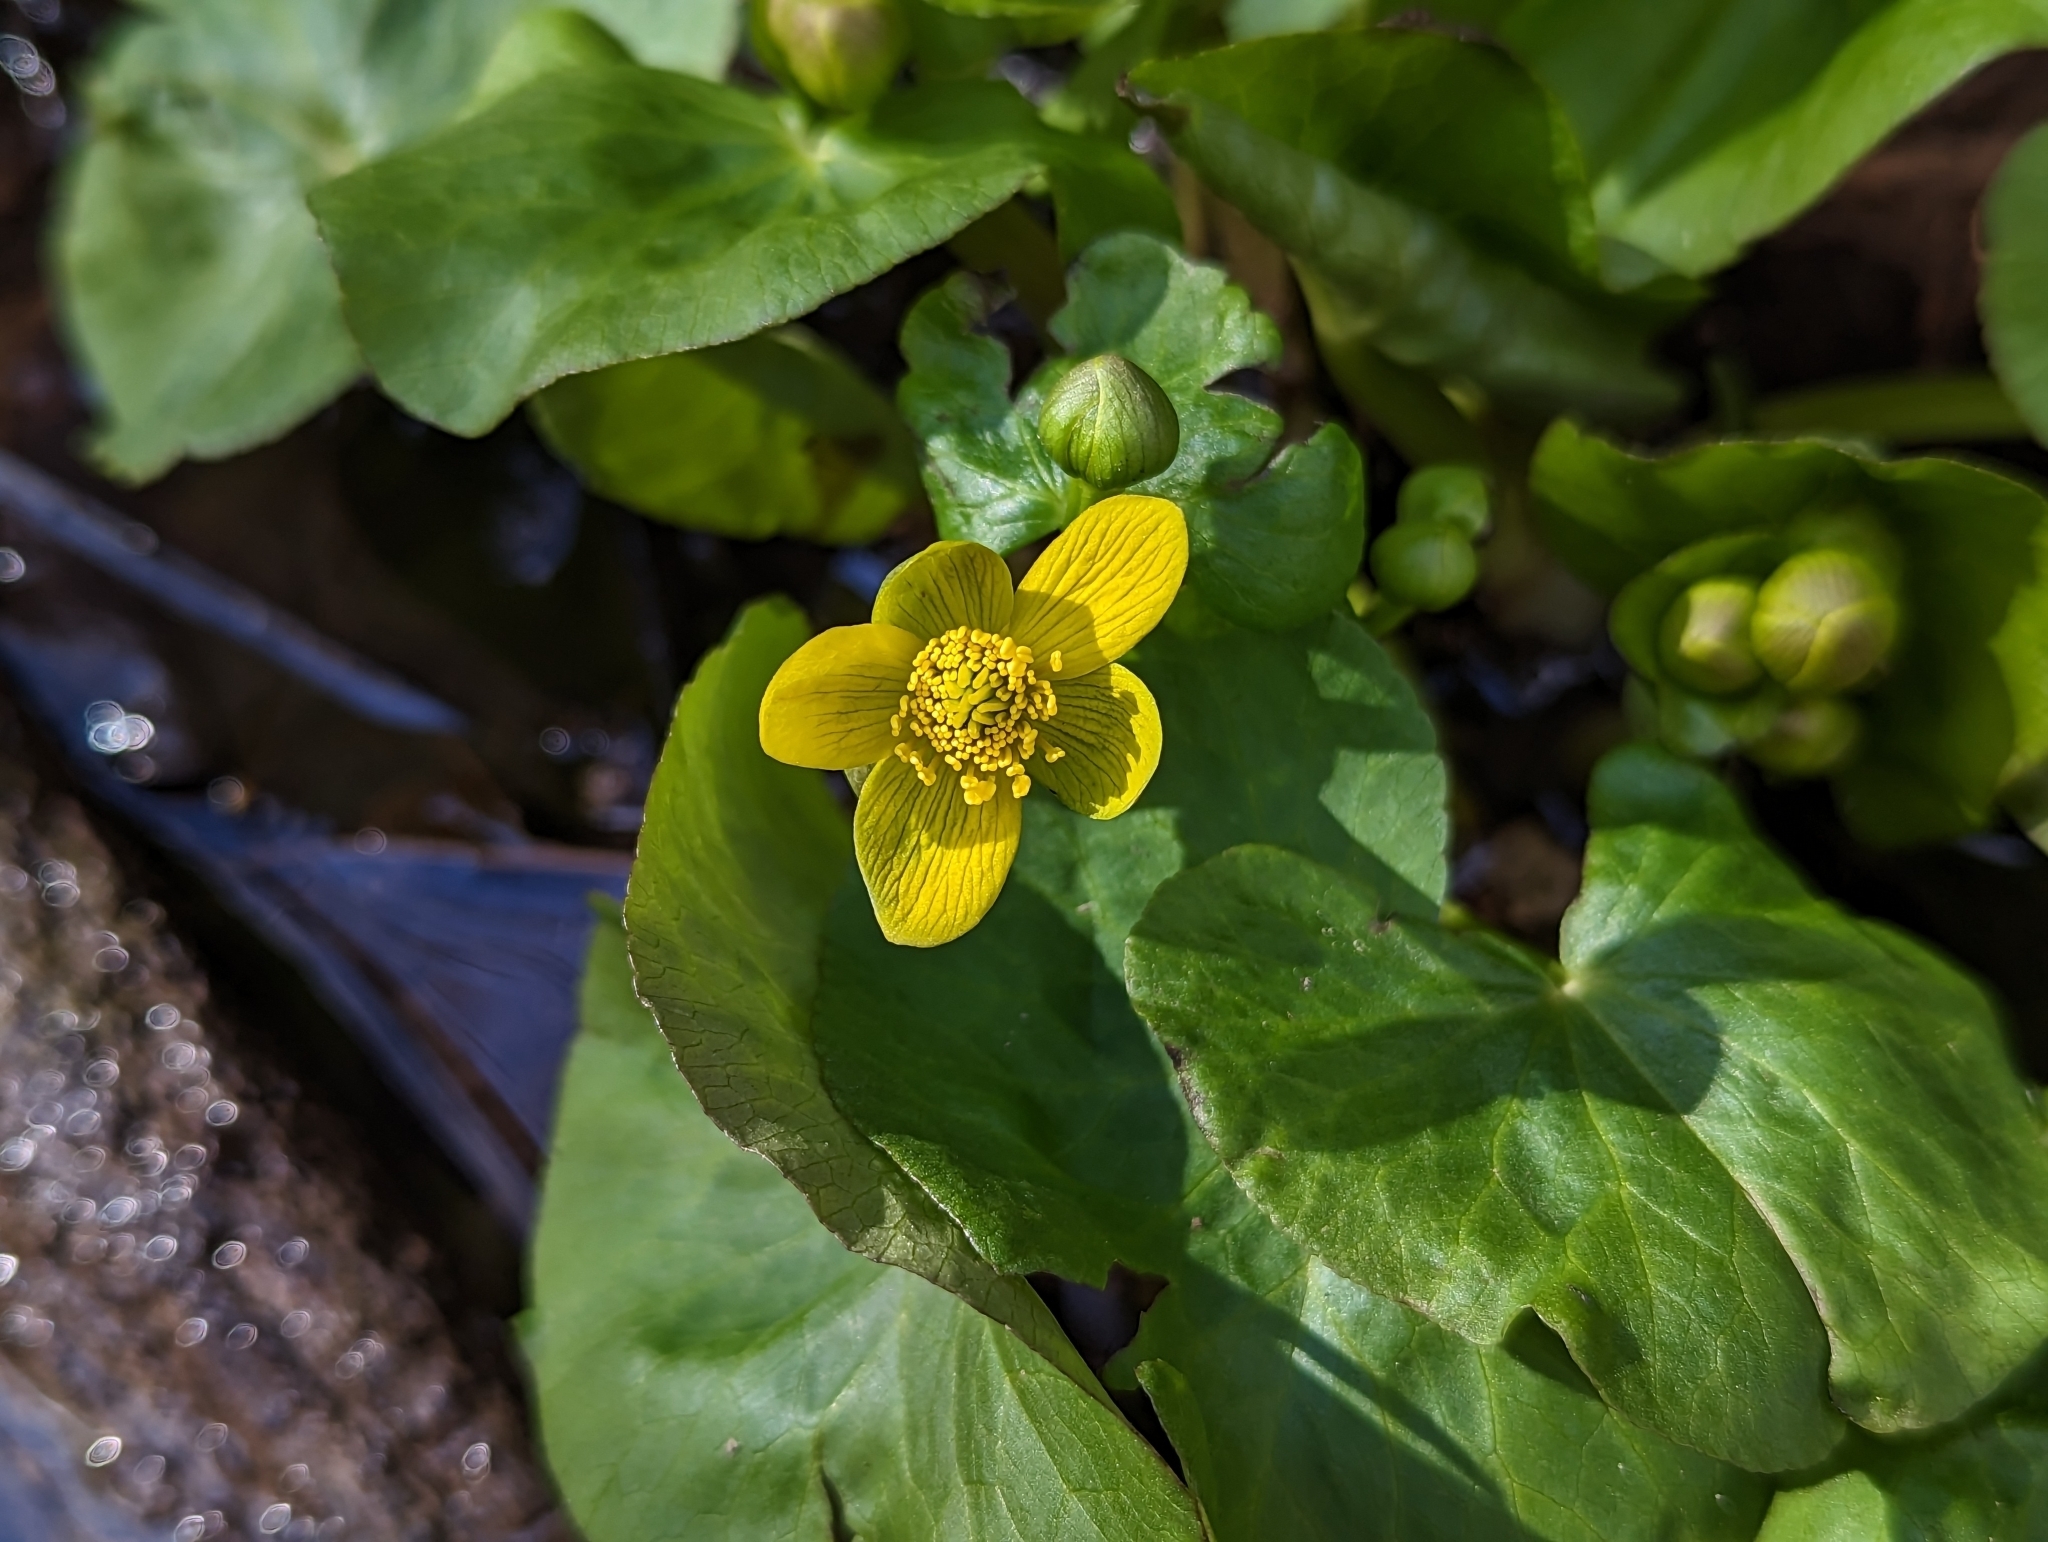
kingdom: Plantae
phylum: Tracheophyta
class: Magnoliopsida
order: Ranunculales
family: Ranunculaceae
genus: Caltha
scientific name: Caltha palustris
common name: Marsh marigold
